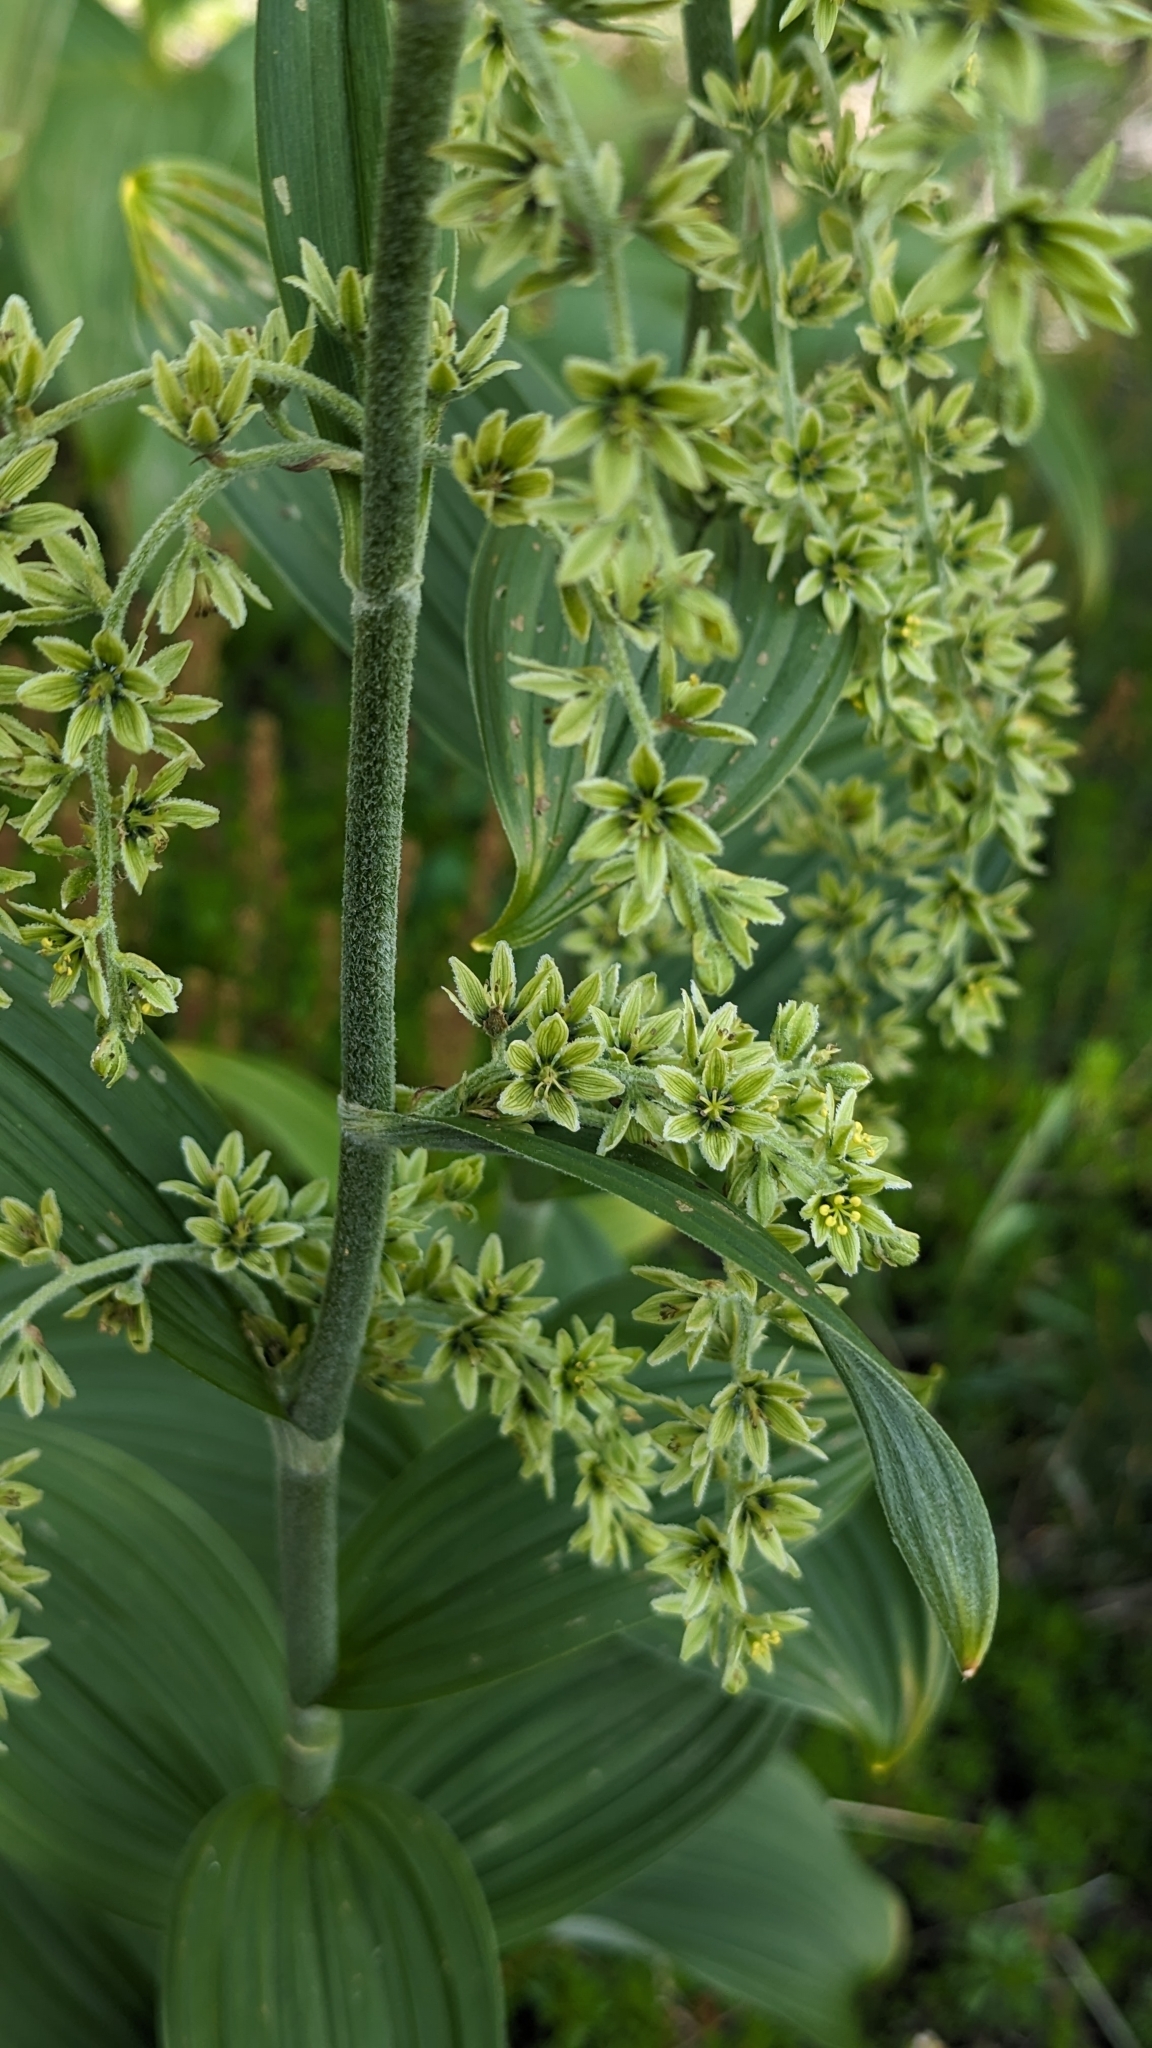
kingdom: Plantae
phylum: Tracheophyta
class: Liliopsida
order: Liliales
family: Melanthiaceae
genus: Veratrum
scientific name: Veratrum viride
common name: American false hellebore
